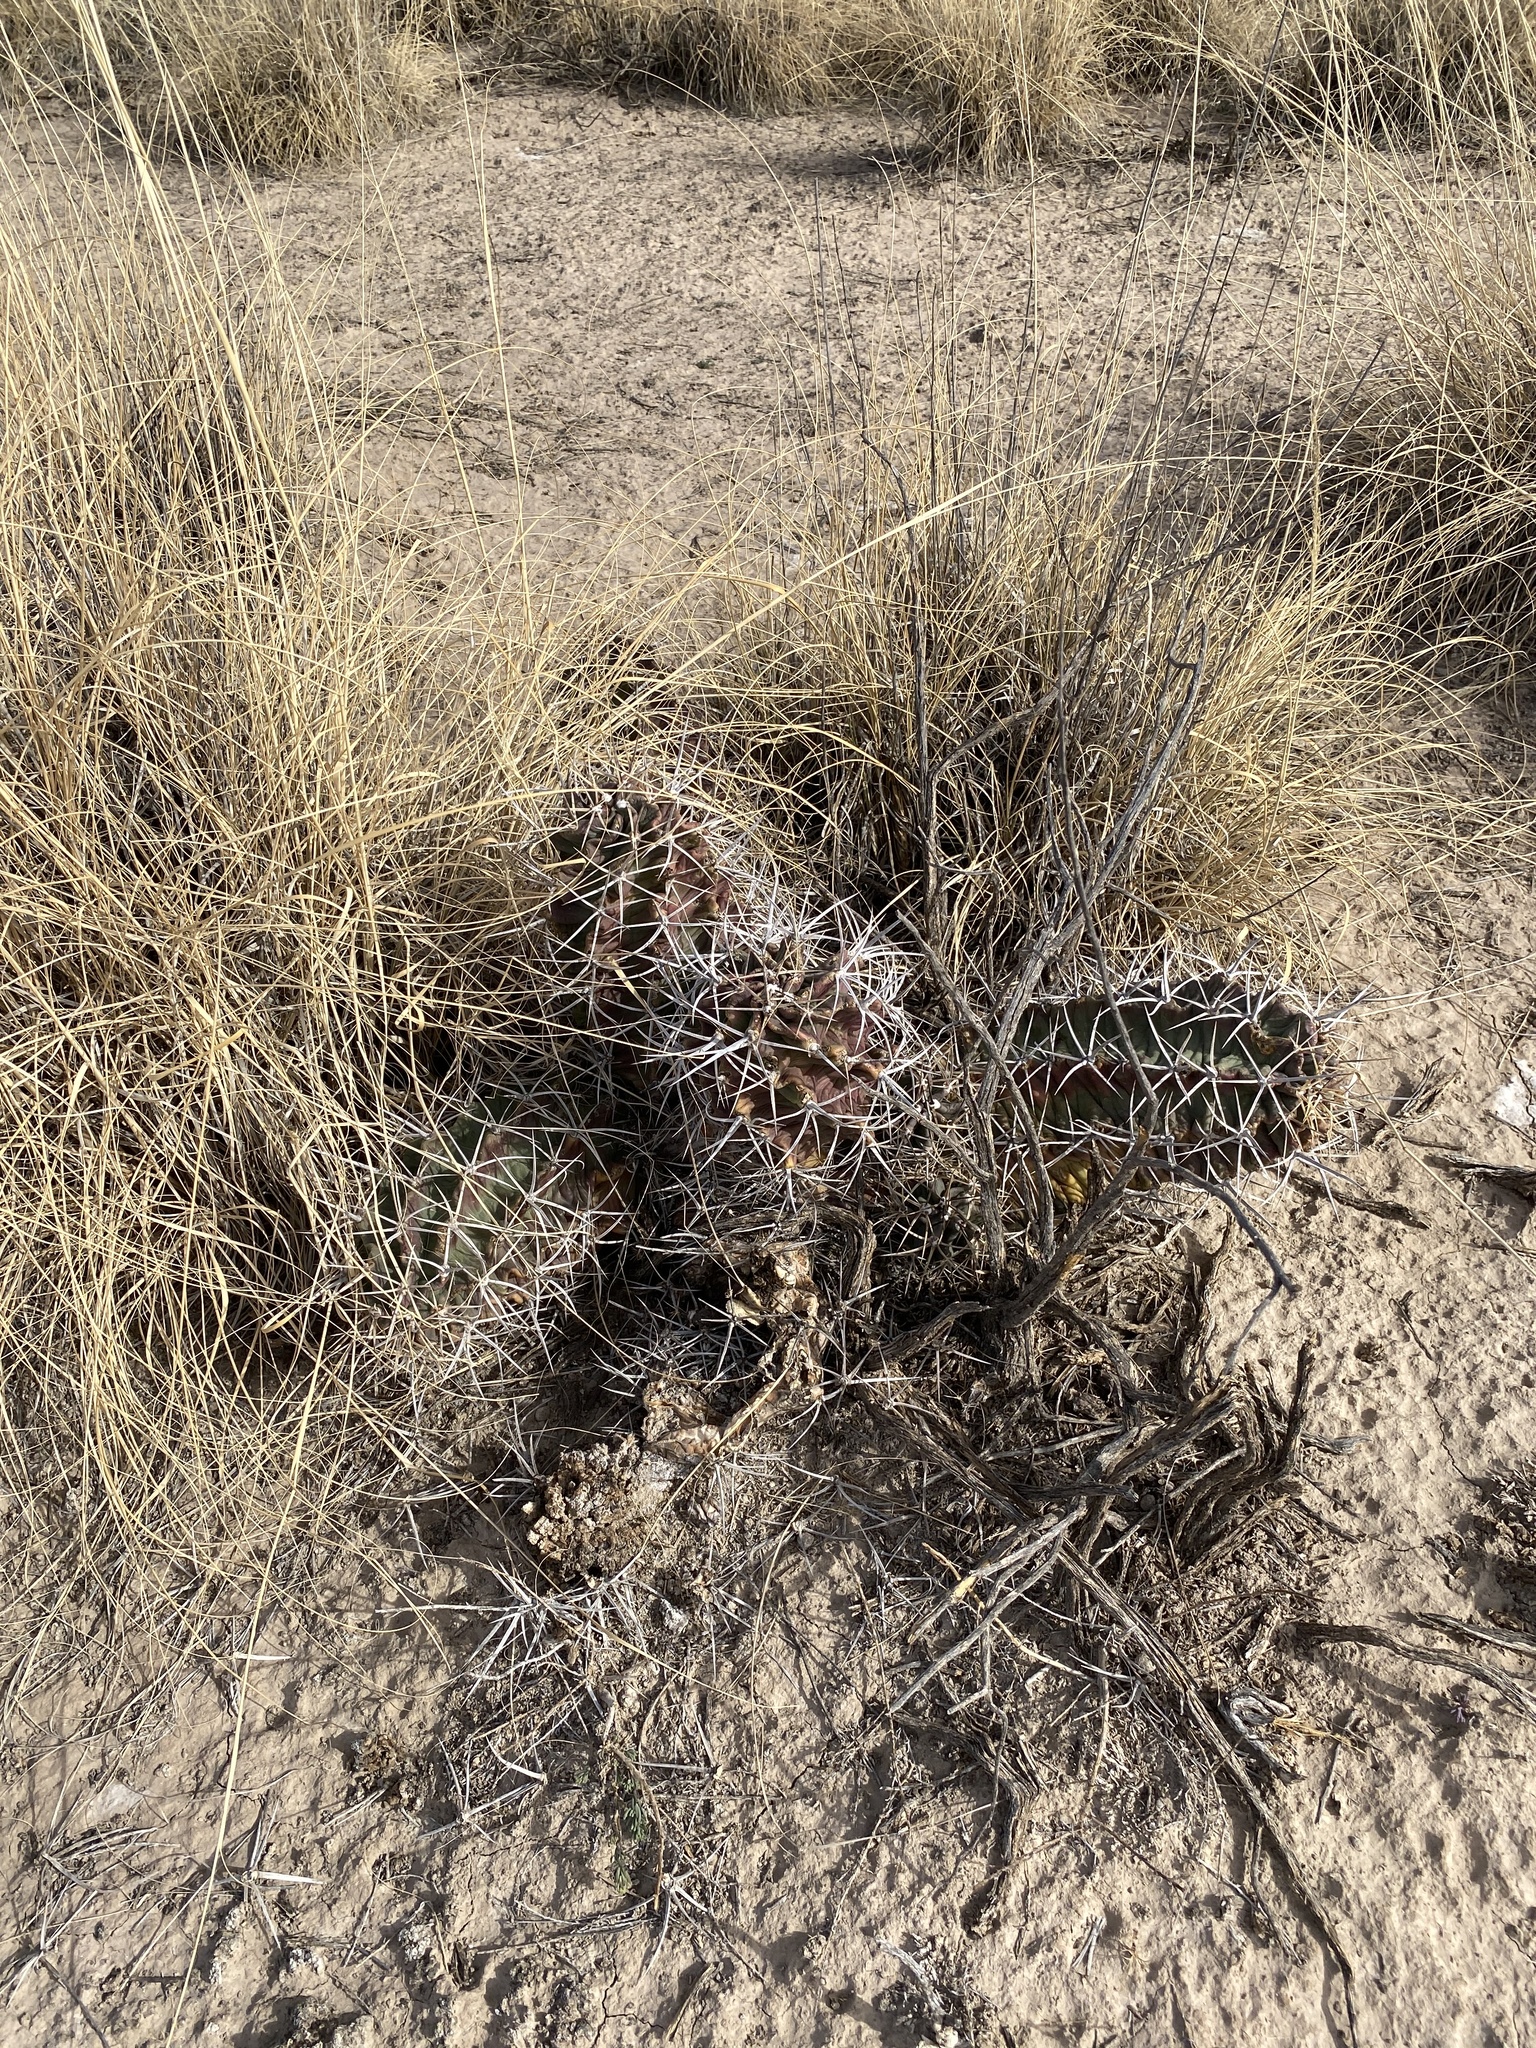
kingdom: Plantae
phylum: Tracheophyta
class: Magnoliopsida
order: Caryophyllales
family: Cactaceae
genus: Echinocereus
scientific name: Echinocereus triglochidiatus
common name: Claretcup hedgehog
